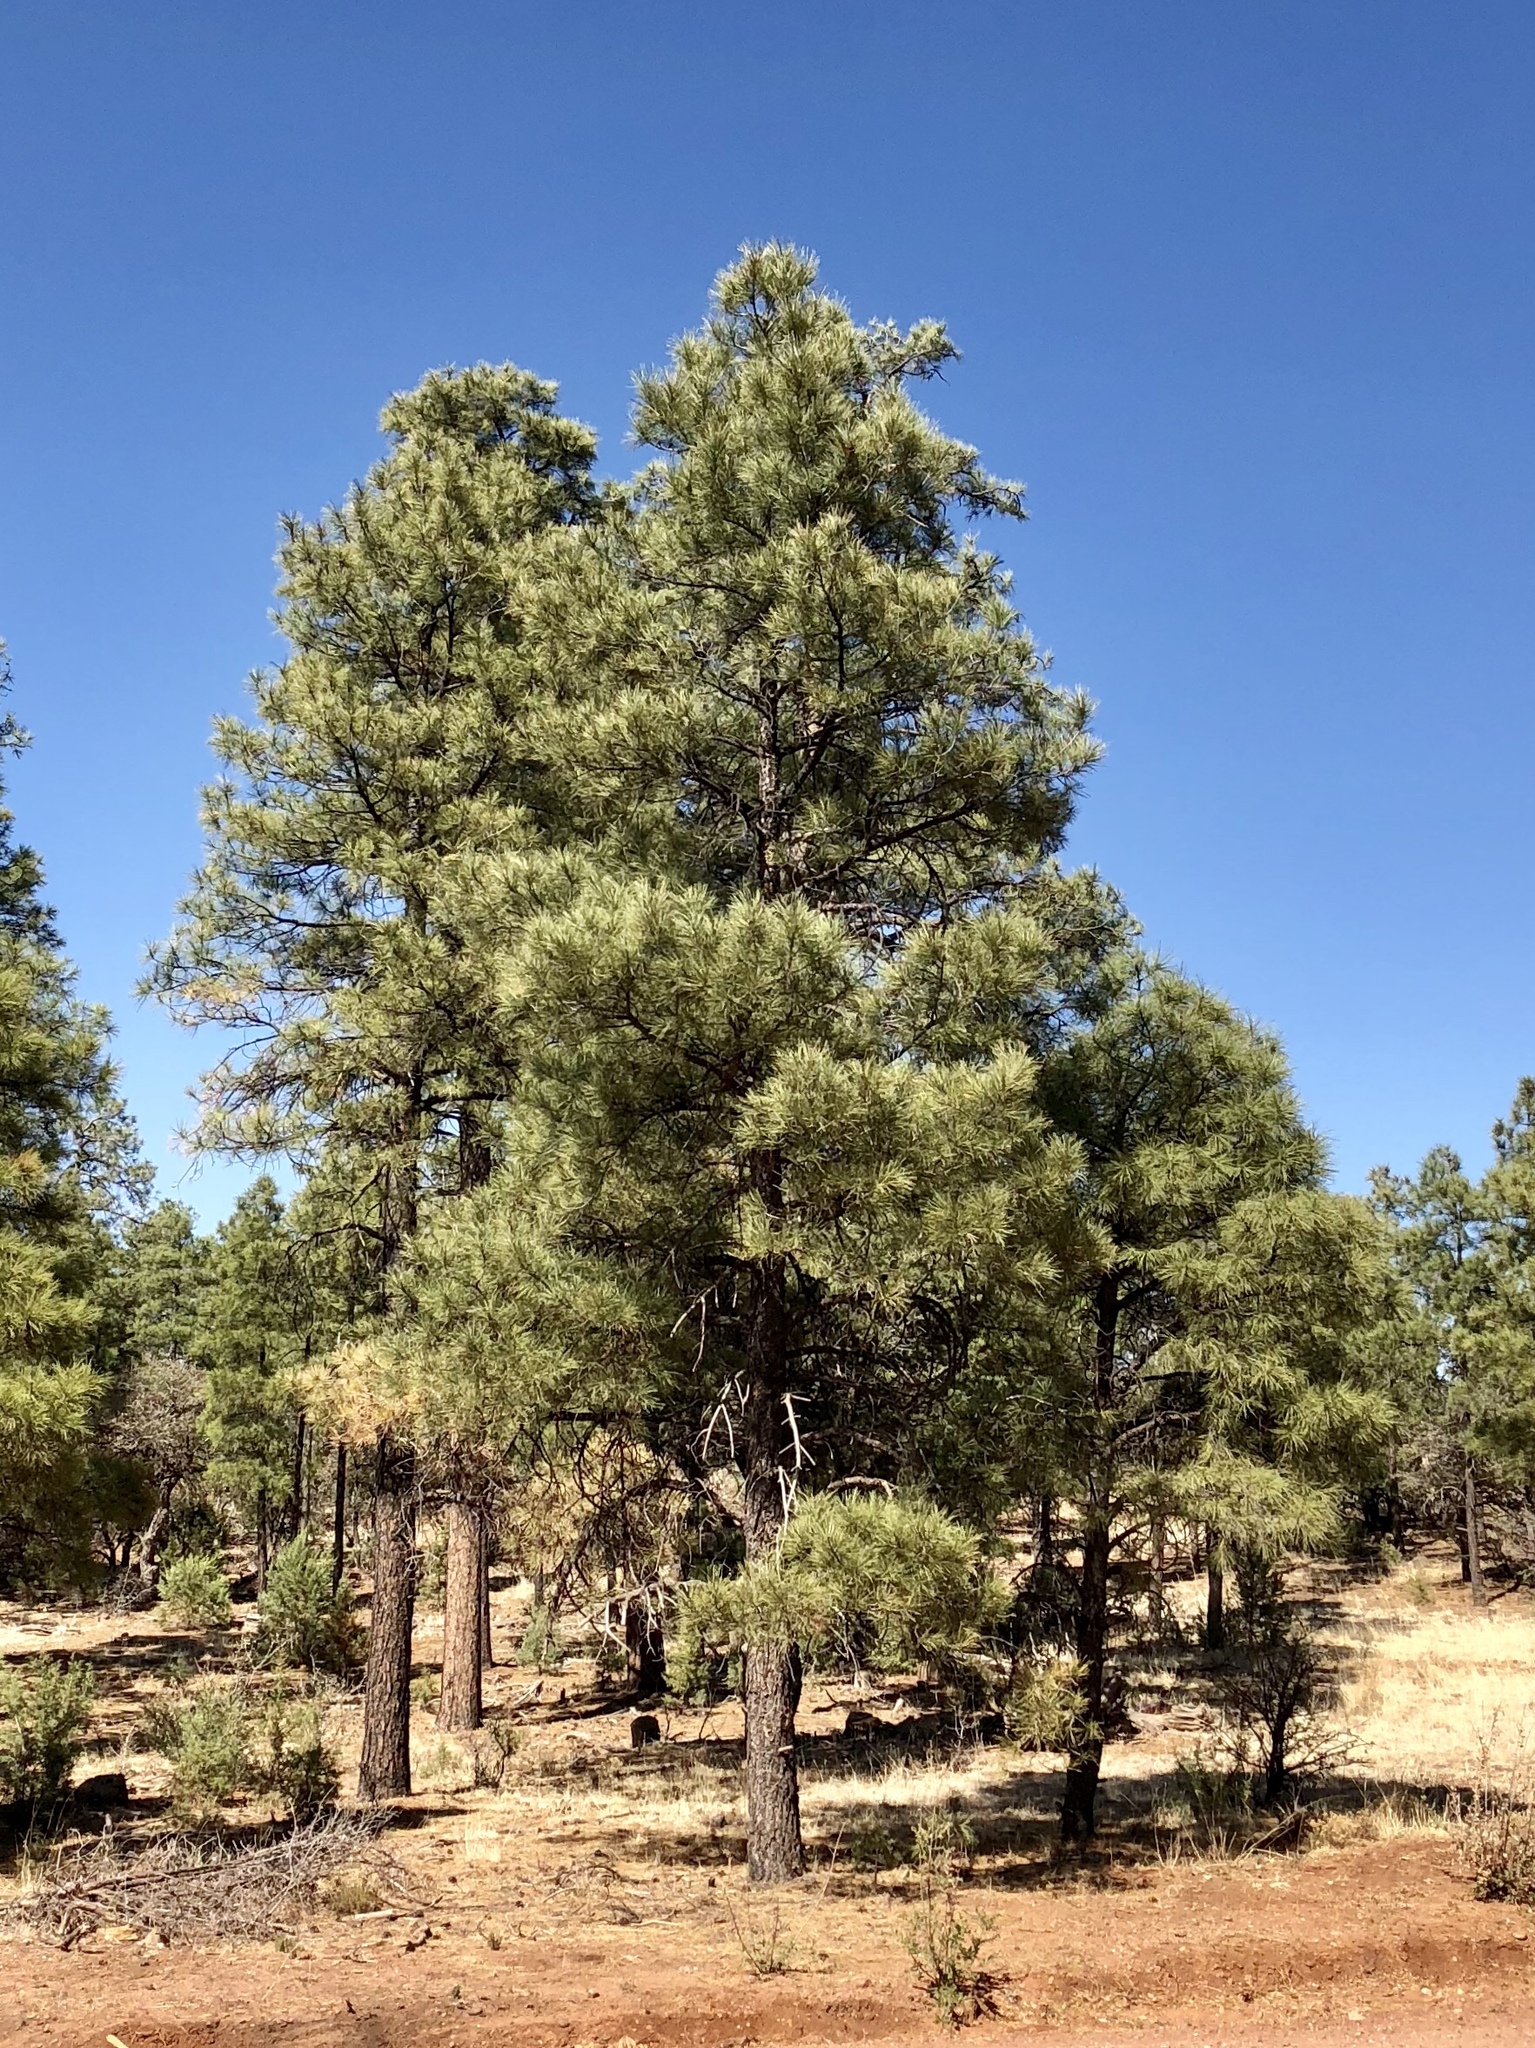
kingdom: Plantae
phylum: Tracheophyta
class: Pinopsida
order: Pinales
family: Pinaceae
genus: Pinus
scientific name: Pinus ponderosa
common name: Western yellow-pine
